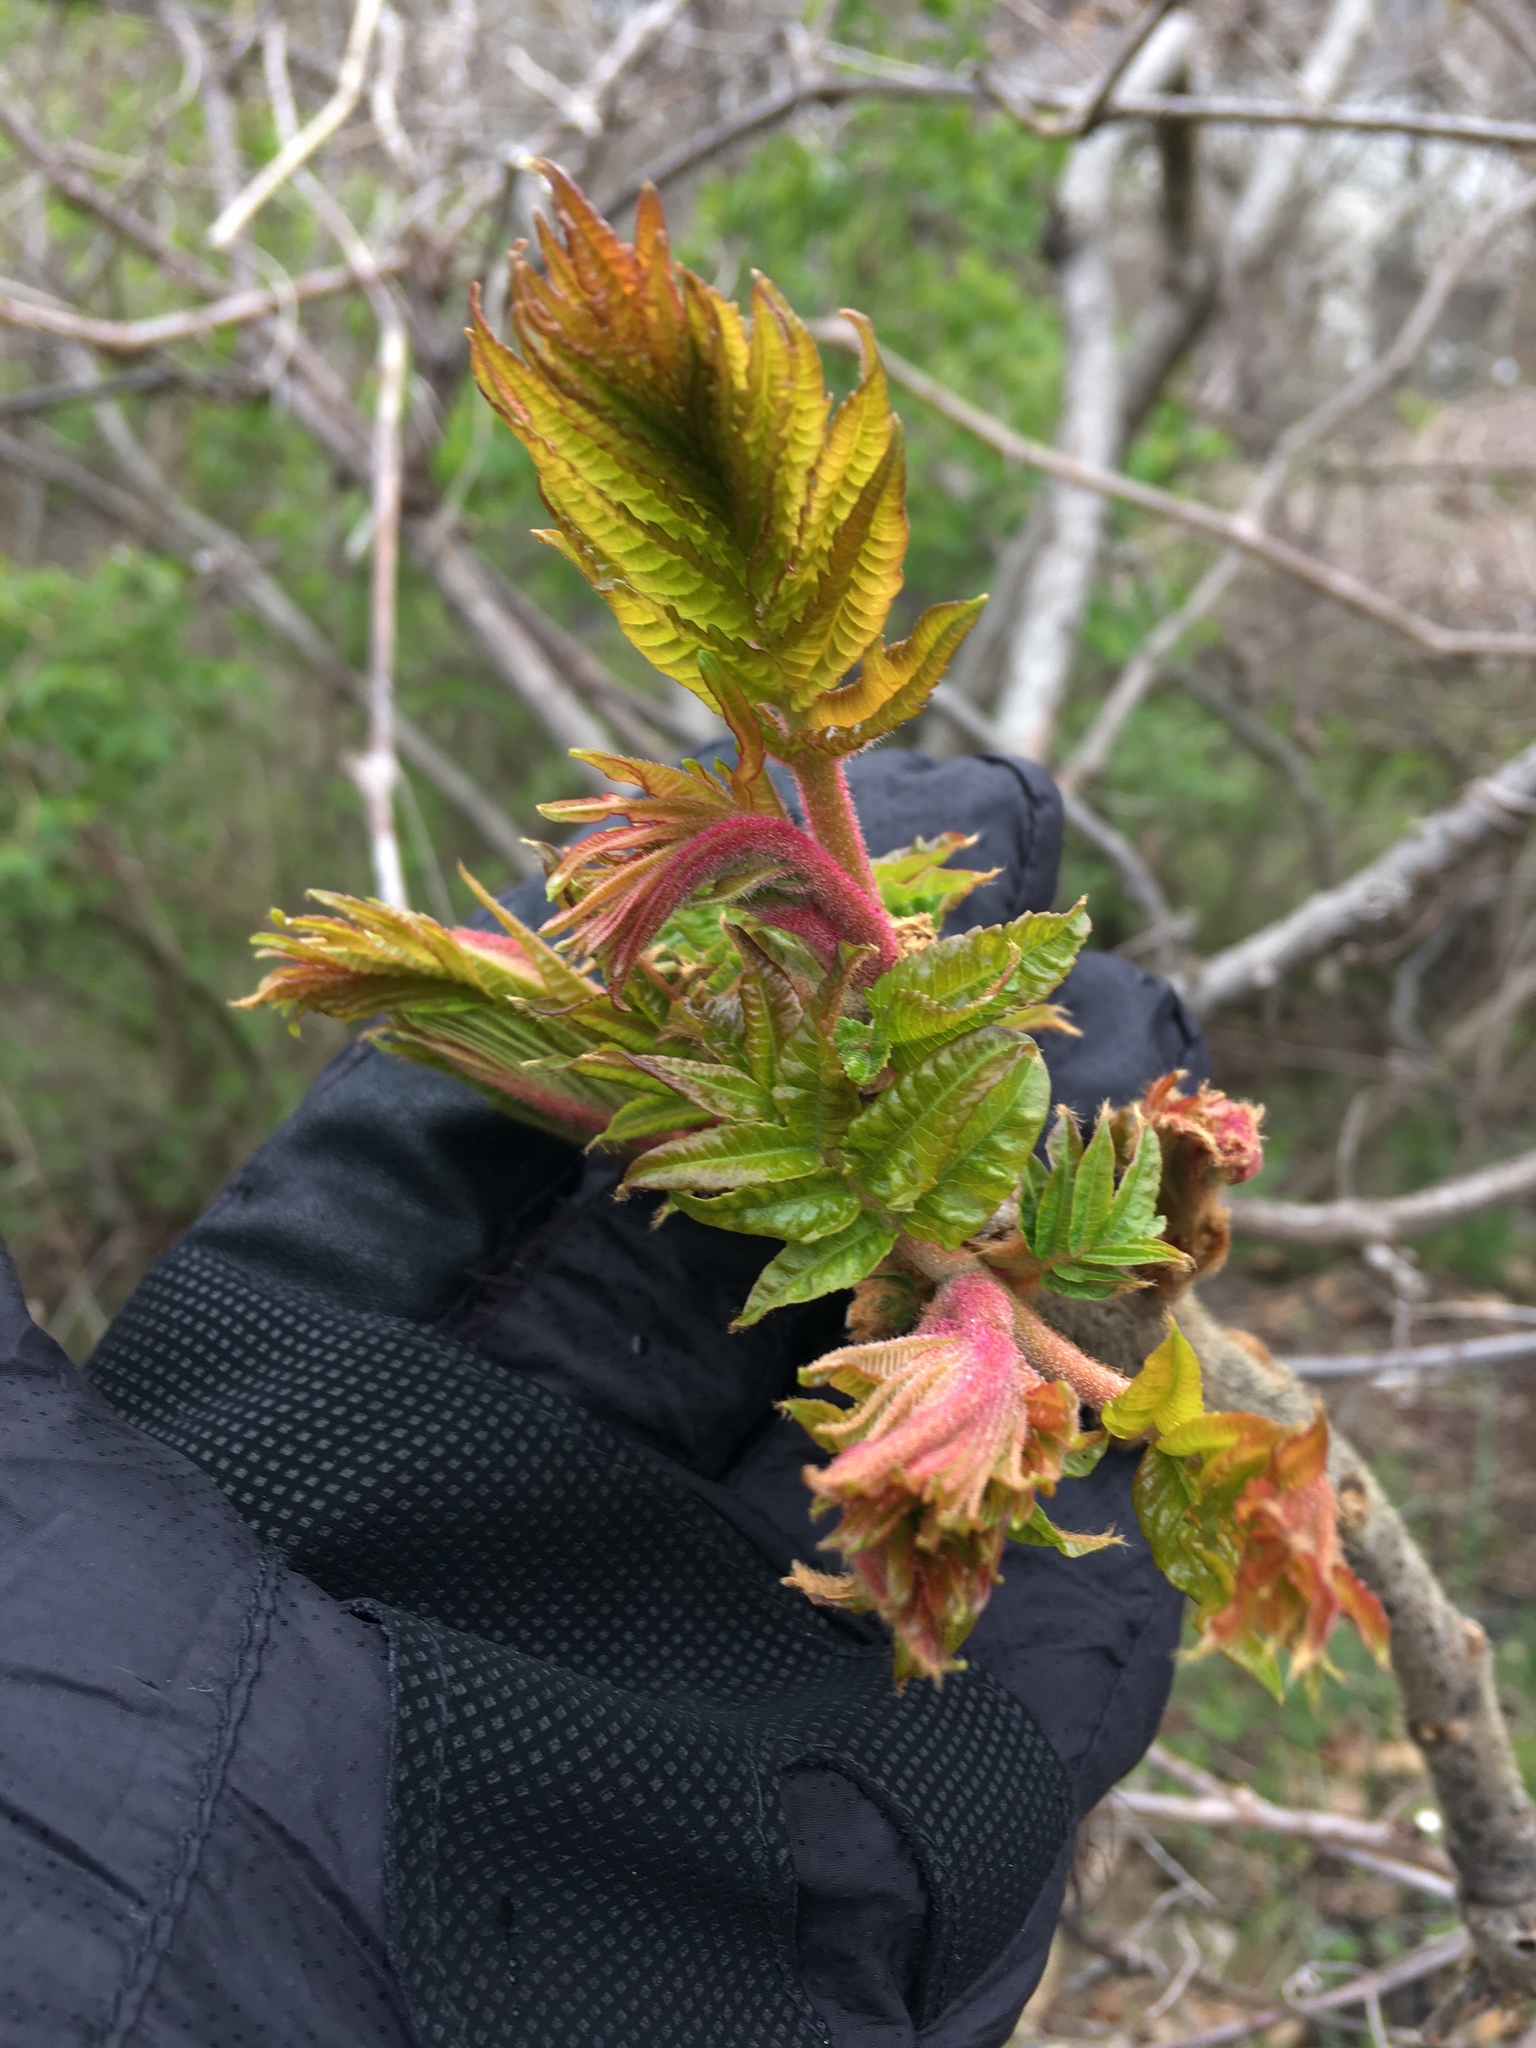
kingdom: Plantae
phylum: Tracheophyta
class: Magnoliopsida
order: Sapindales
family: Anacardiaceae
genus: Rhus
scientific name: Rhus typhina
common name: Staghorn sumac
